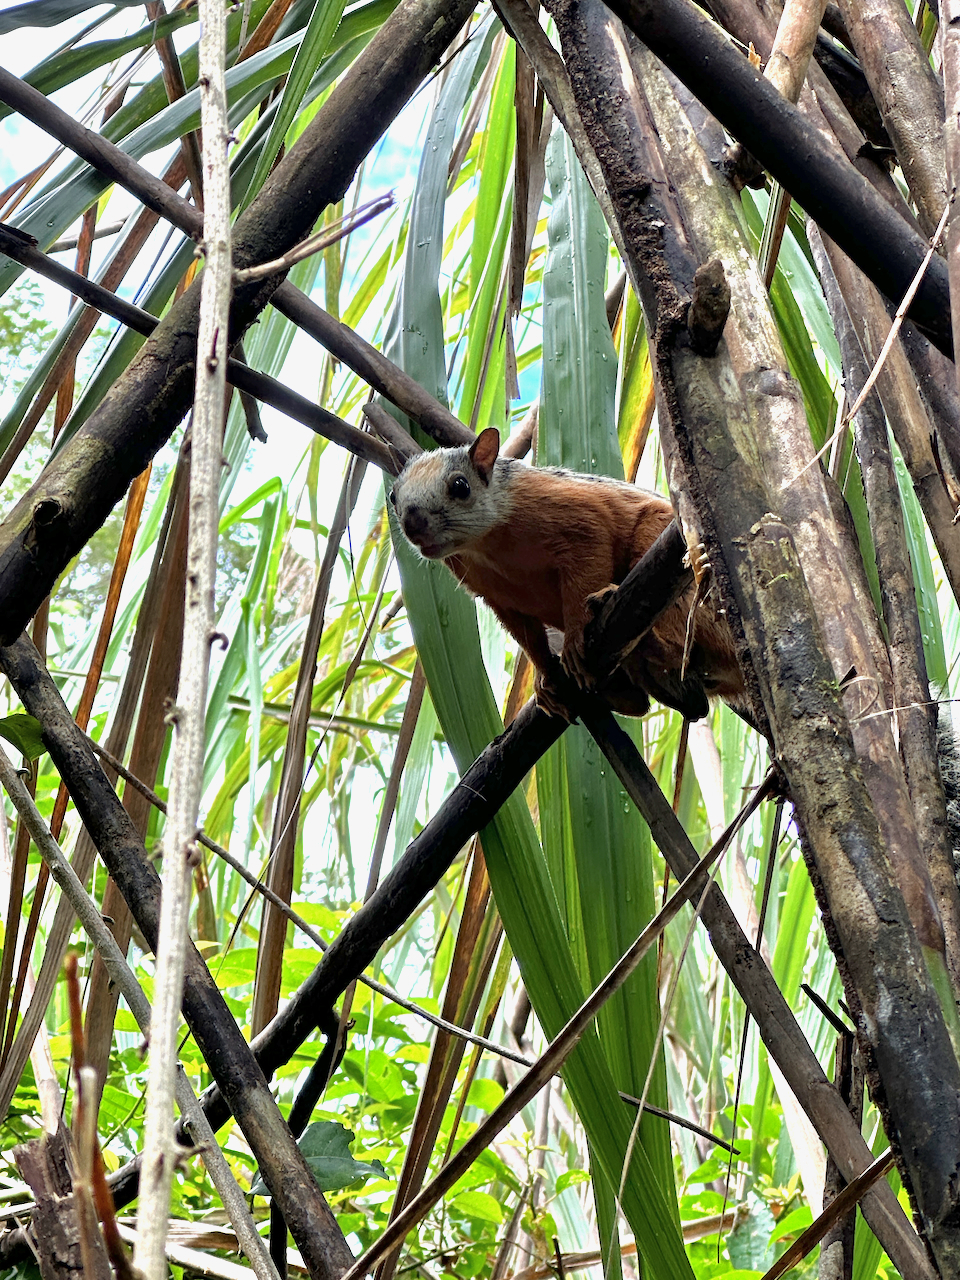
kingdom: Animalia
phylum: Chordata
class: Mammalia
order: Rodentia
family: Sciuridae
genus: Sciurus
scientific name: Sciurus variegatoides
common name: Variegated squirrel
